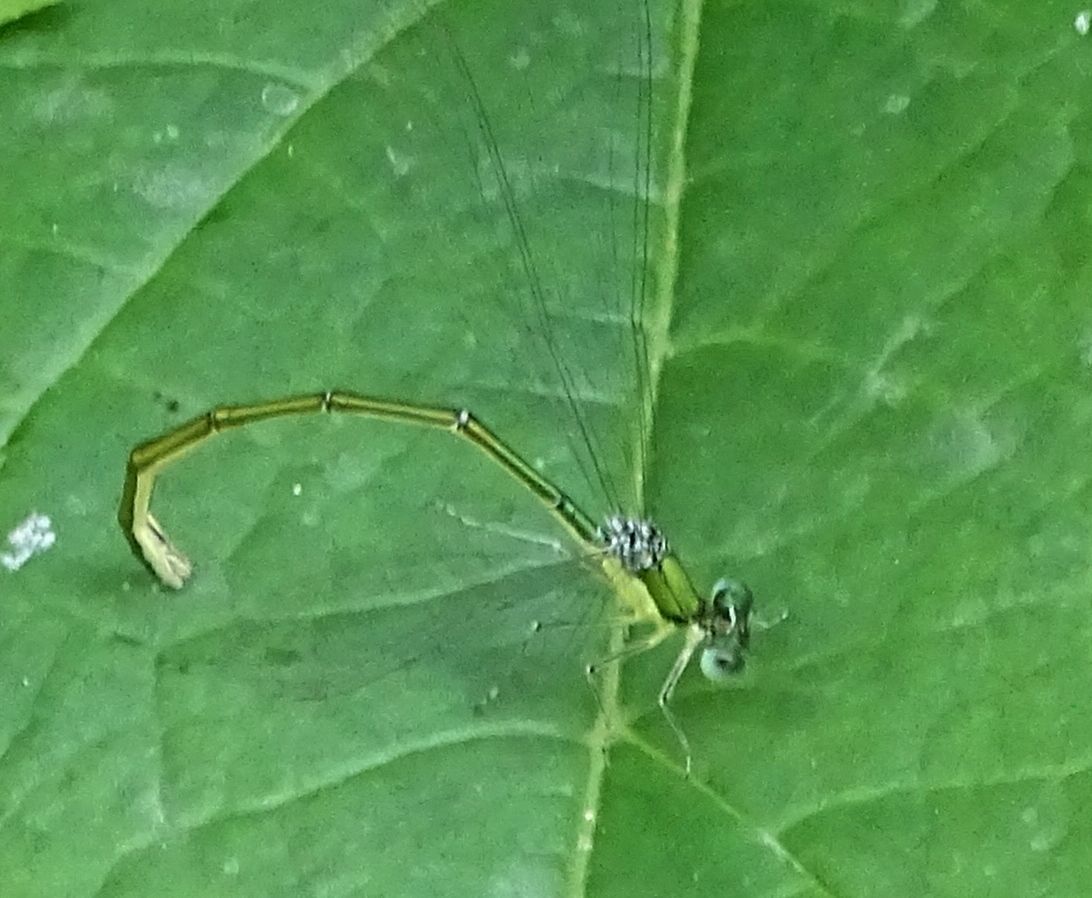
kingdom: Animalia
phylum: Arthropoda
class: Insecta
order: Odonata
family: Coenagrionidae
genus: Nehalennia
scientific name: Nehalennia irene
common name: Sedge sprite
